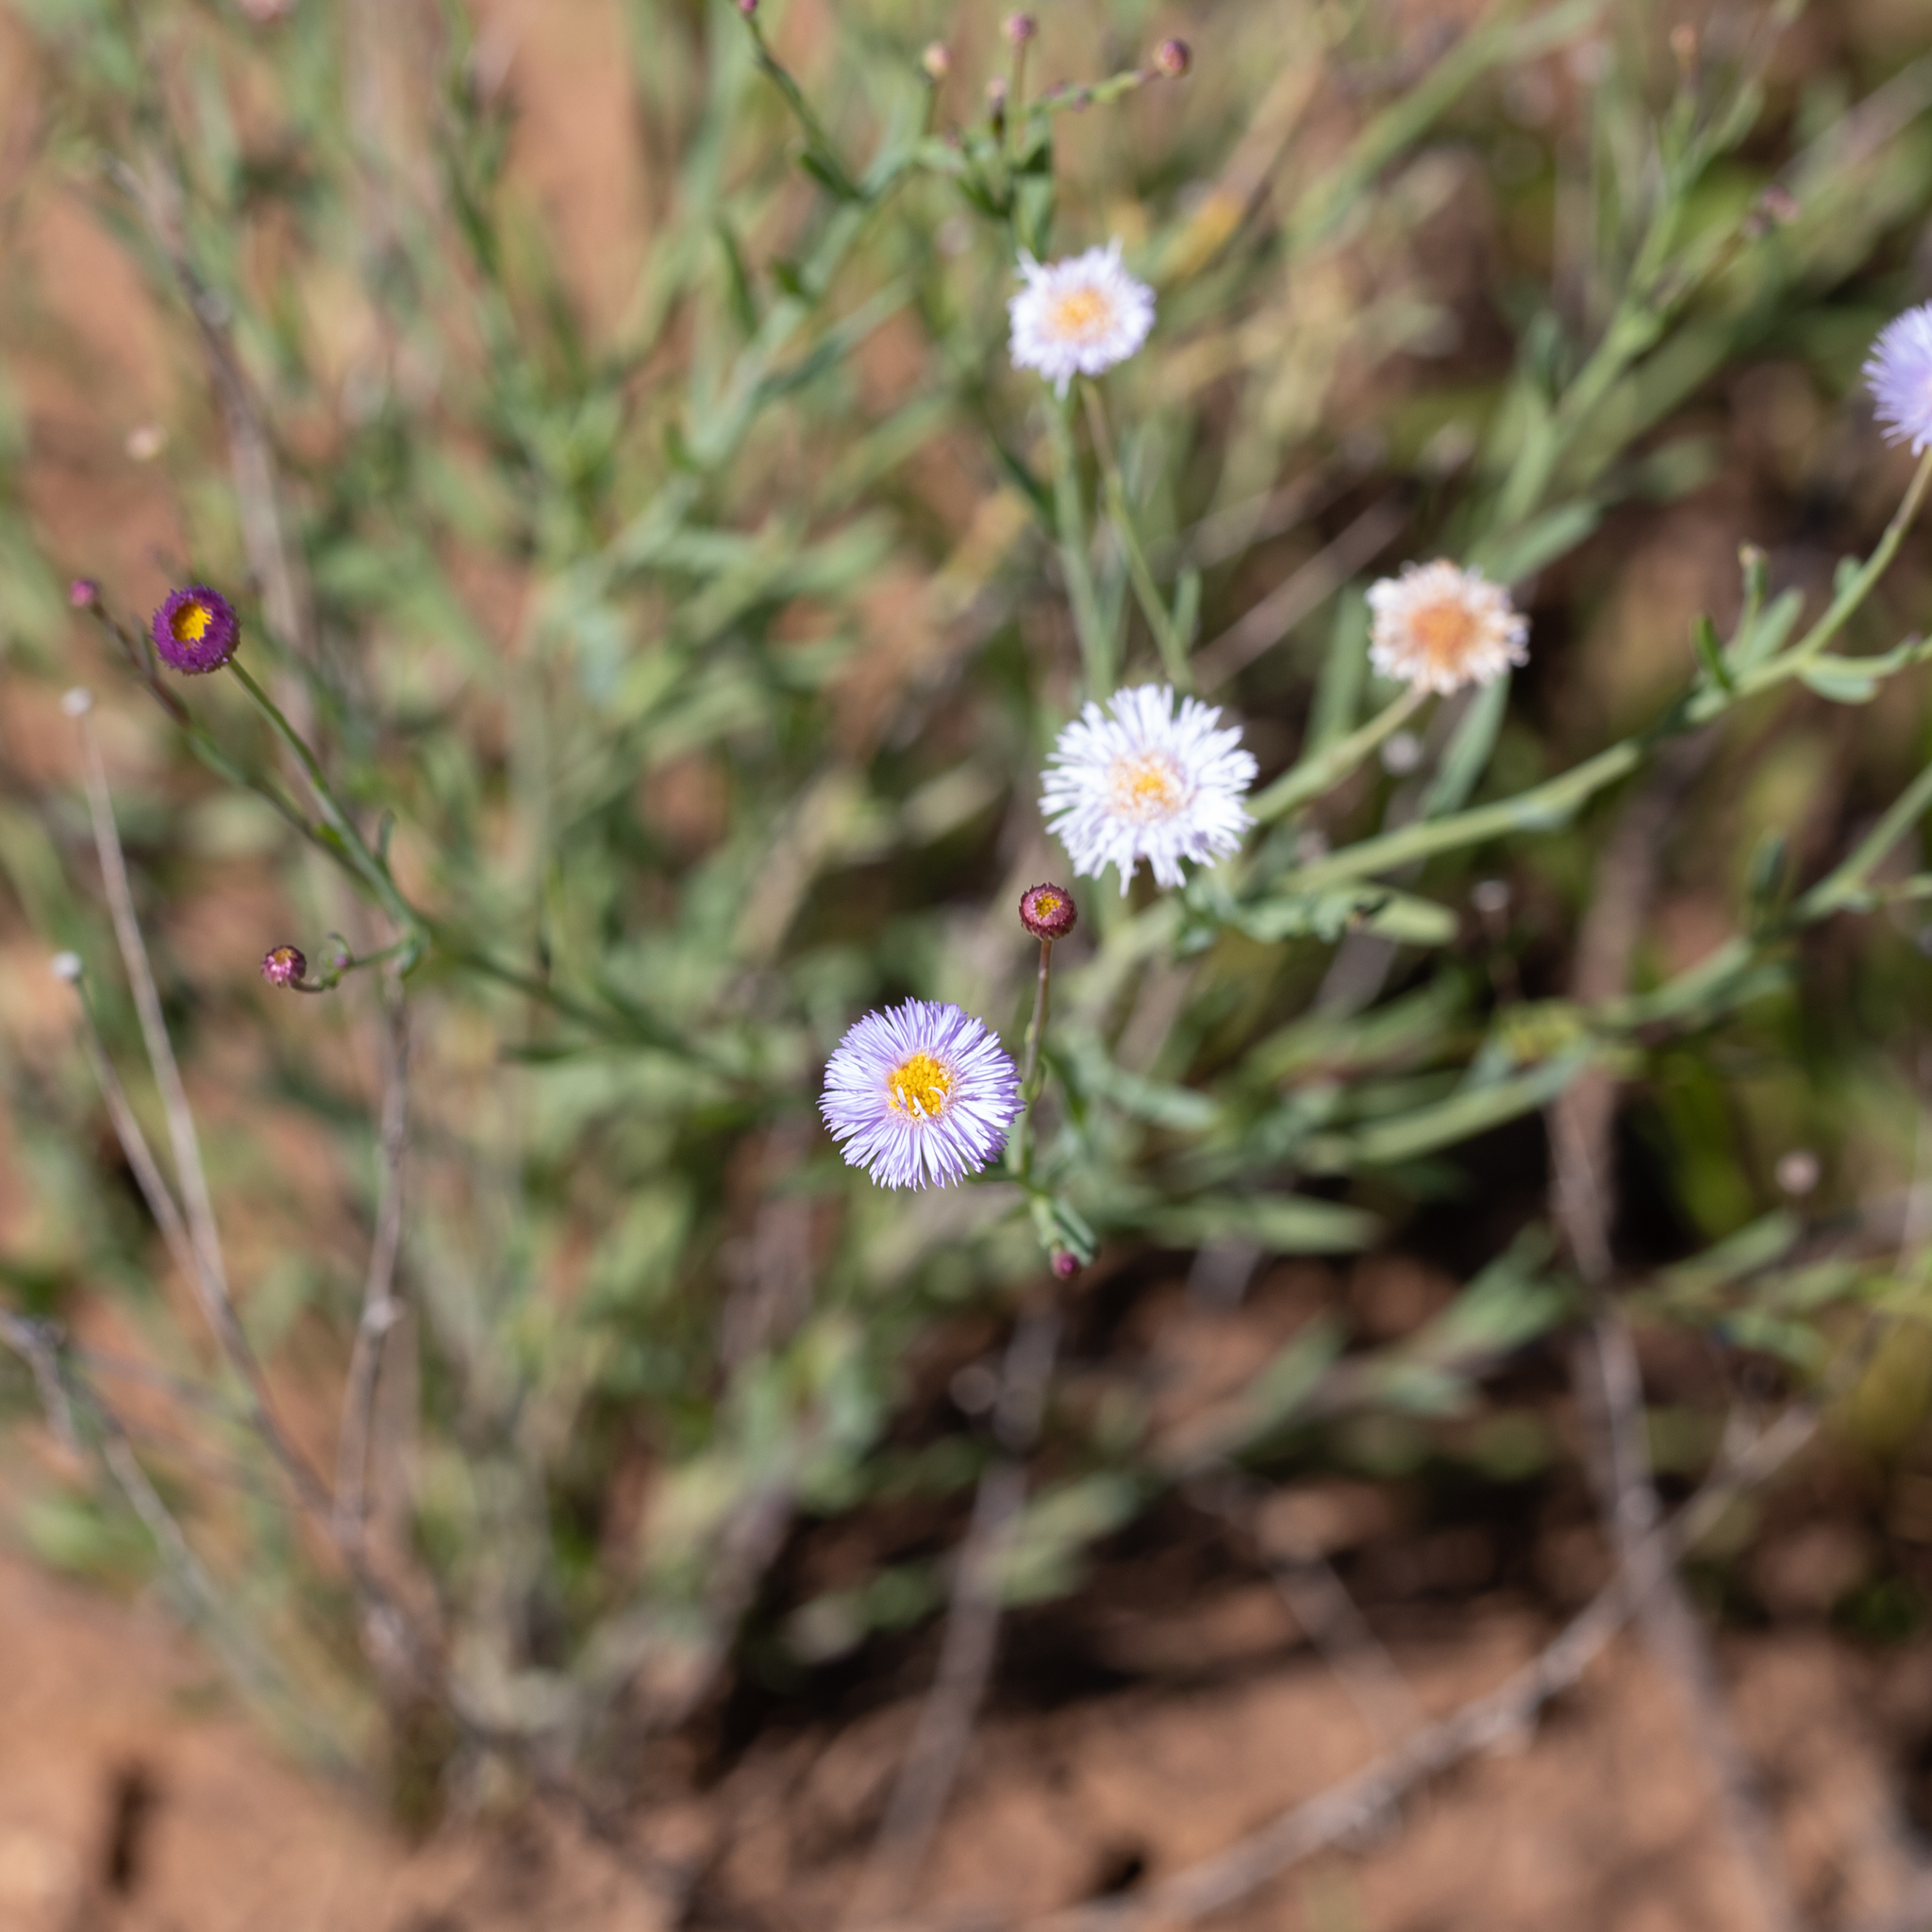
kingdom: Plantae
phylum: Tracheophyta
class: Magnoliopsida
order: Asterales
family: Asteraceae
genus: Minuria
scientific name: Minuria integerrima
